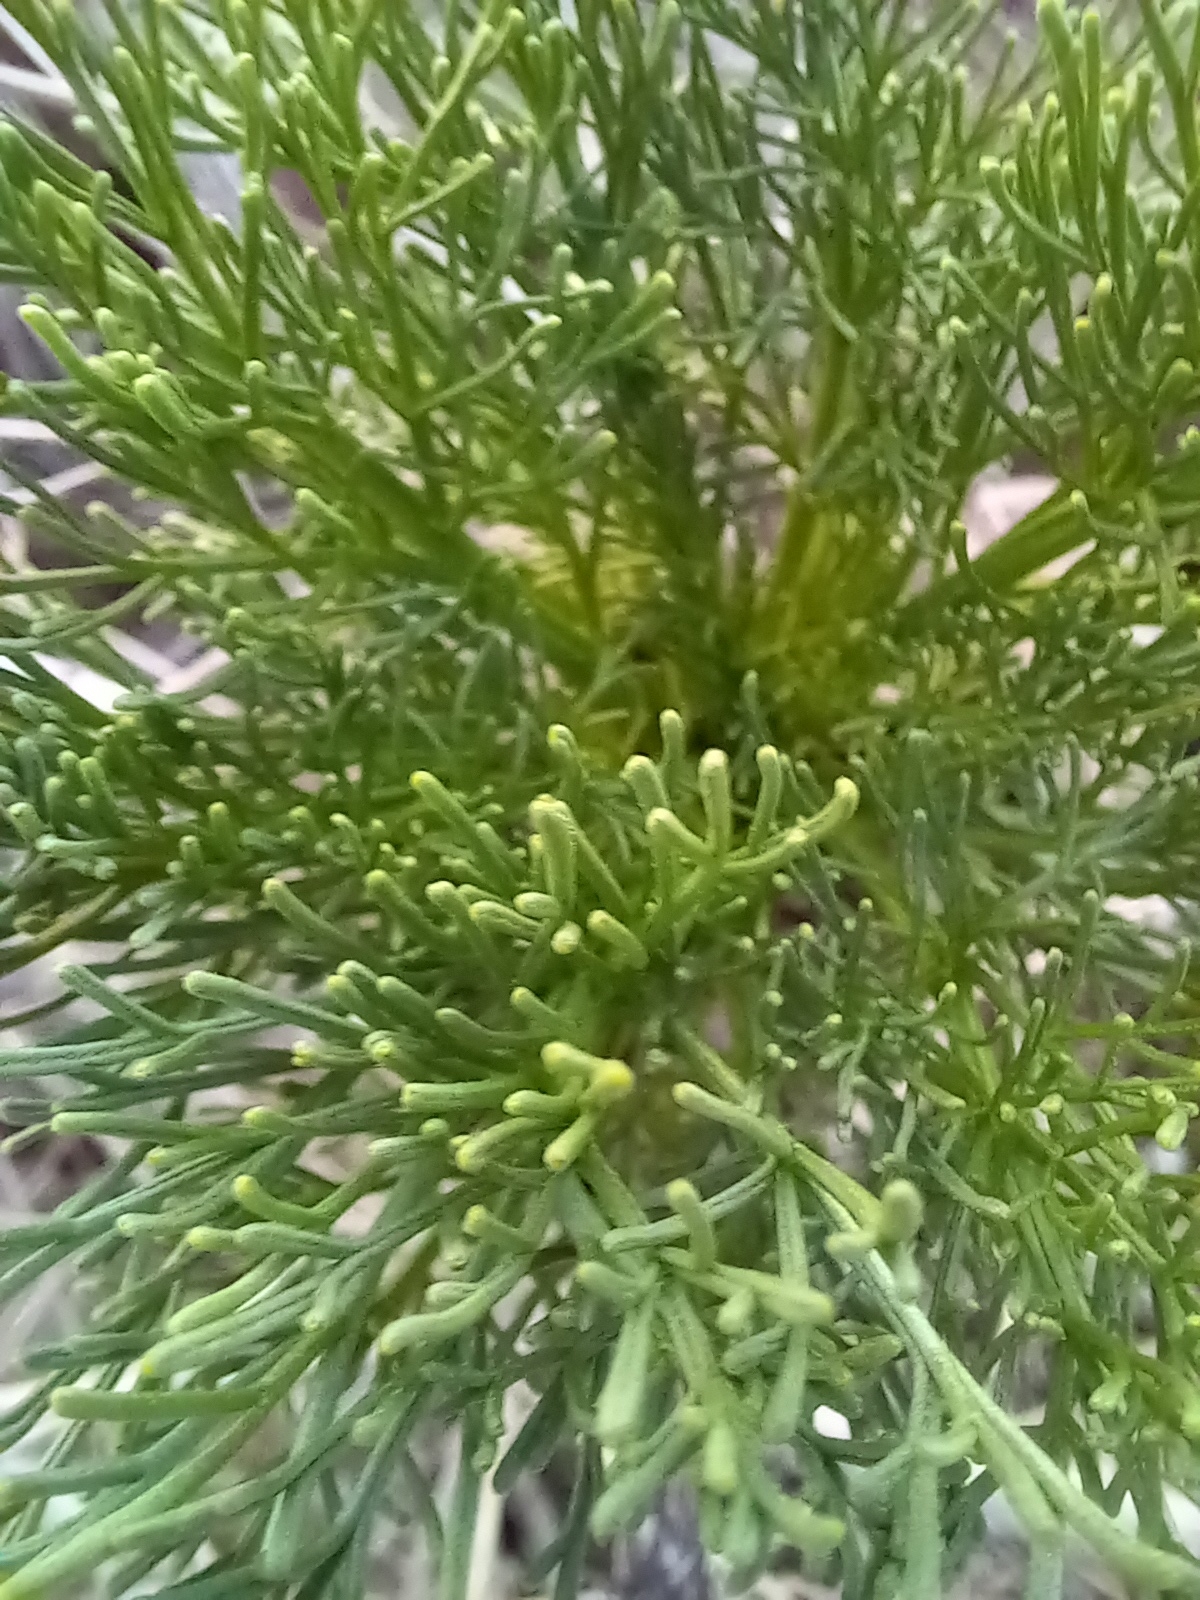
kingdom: Plantae
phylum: Tracheophyta
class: Magnoliopsida
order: Asterales
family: Asteraceae
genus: Coreopsis
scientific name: Coreopsis gigantea
